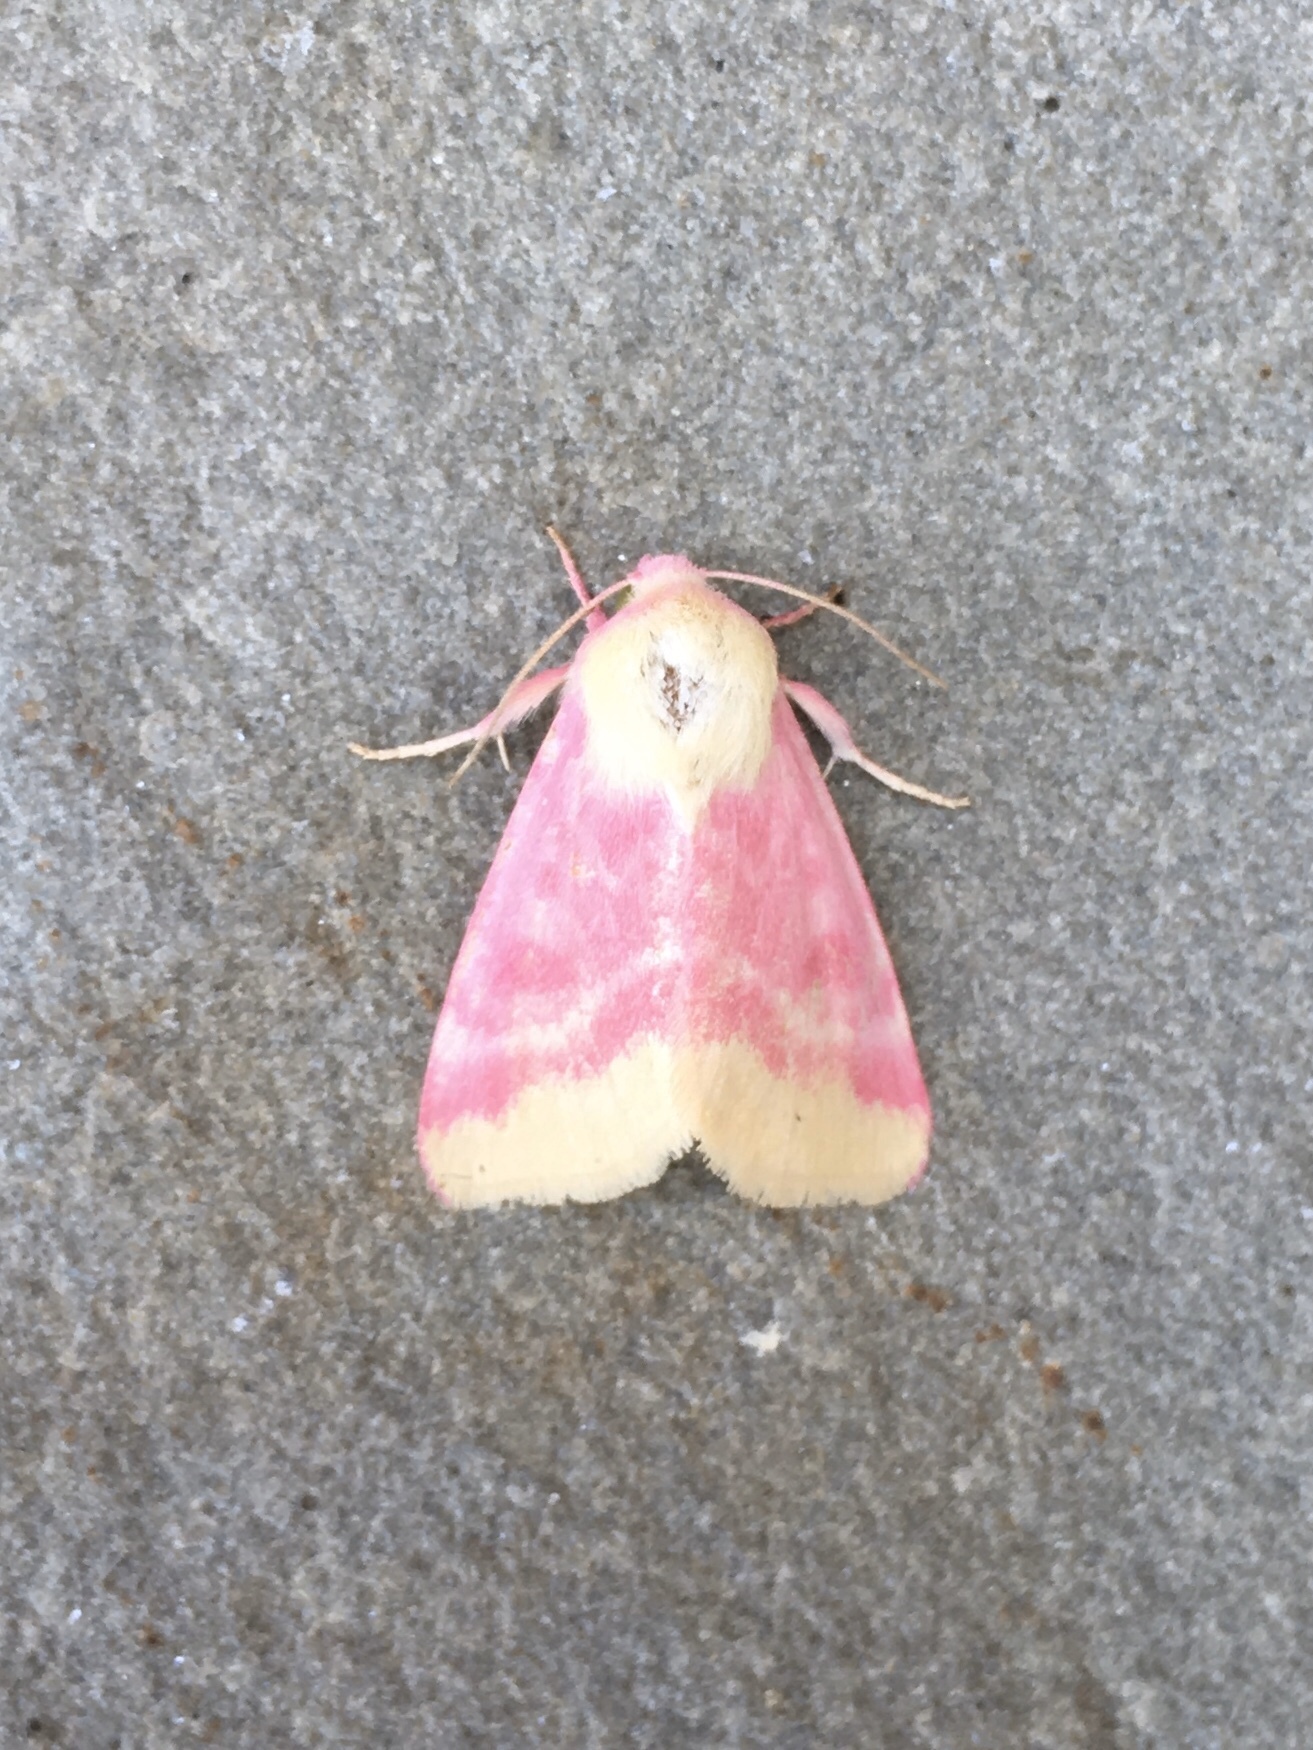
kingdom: Animalia
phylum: Arthropoda
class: Insecta
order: Lepidoptera
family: Noctuidae
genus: Schinia
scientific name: Schinia florida
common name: Primrose moth
